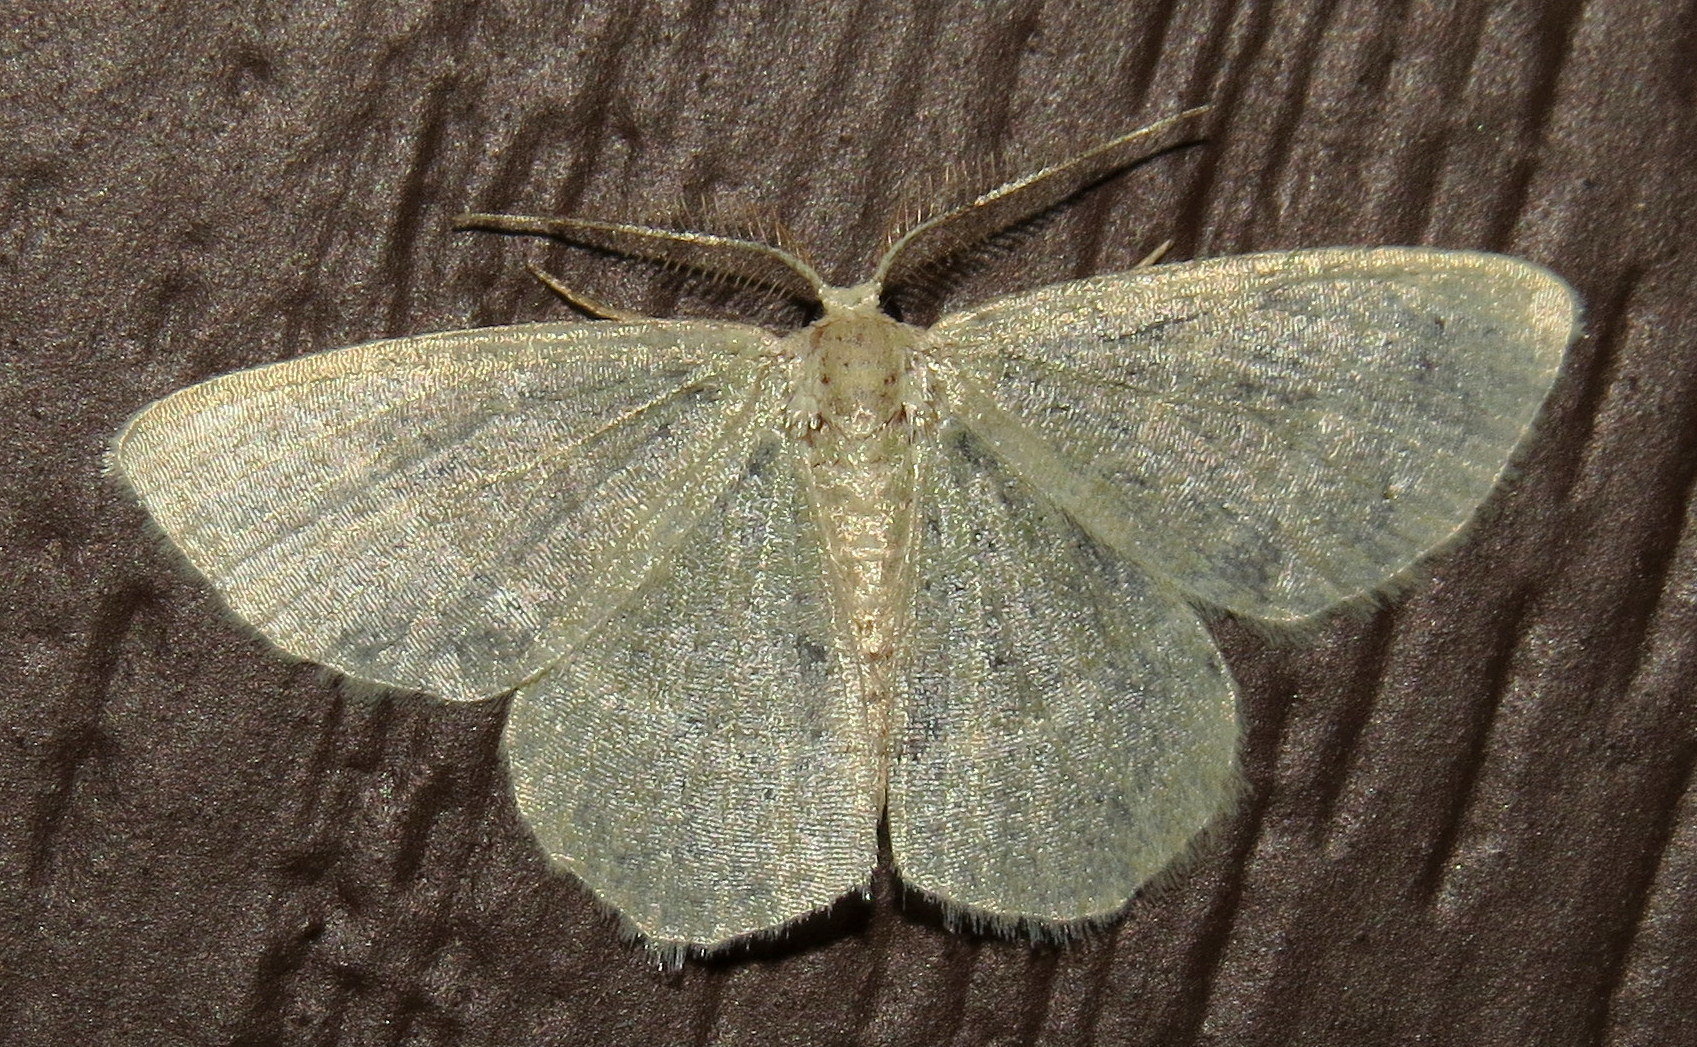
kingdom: Animalia
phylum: Arthropoda
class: Insecta
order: Lepidoptera
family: Geometridae
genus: Chlorochlamys
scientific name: Chlorochlamys chloroleucaria
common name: Blackberry looper
